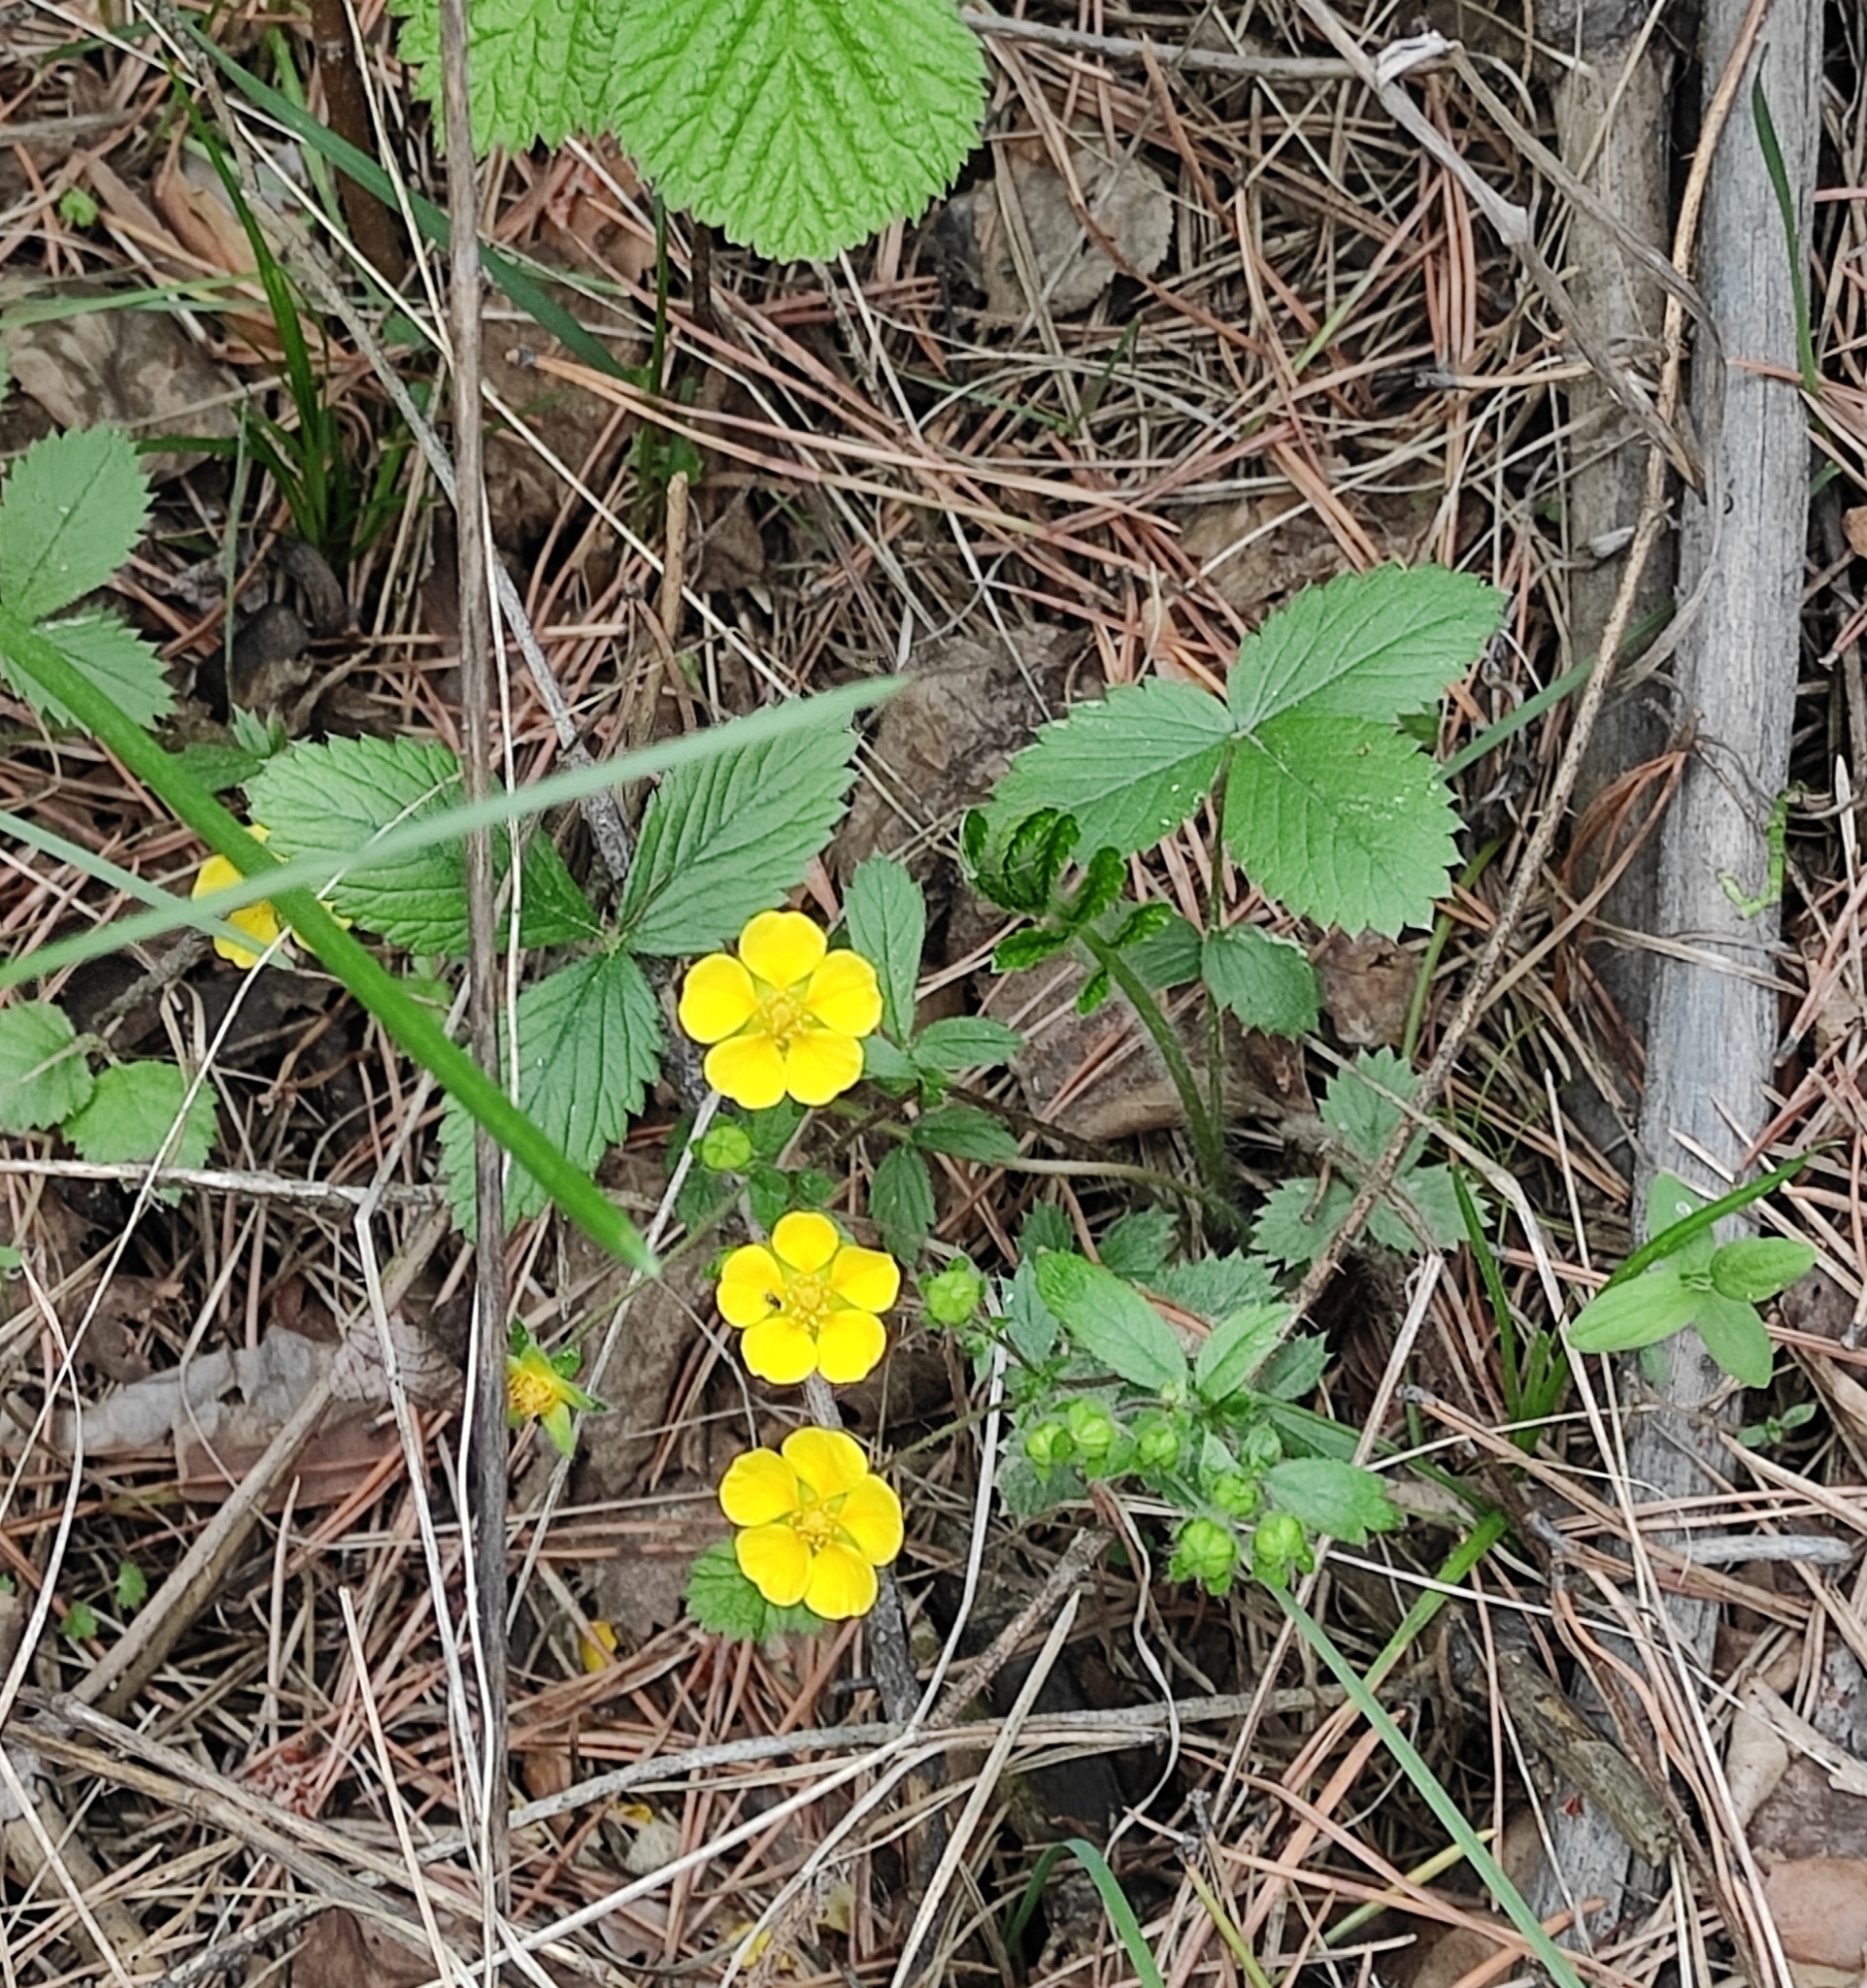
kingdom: Plantae
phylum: Tracheophyta
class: Magnoliopsida
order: Rosales
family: Rosaceae
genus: Potentilla
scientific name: Potentilla fragarioides
